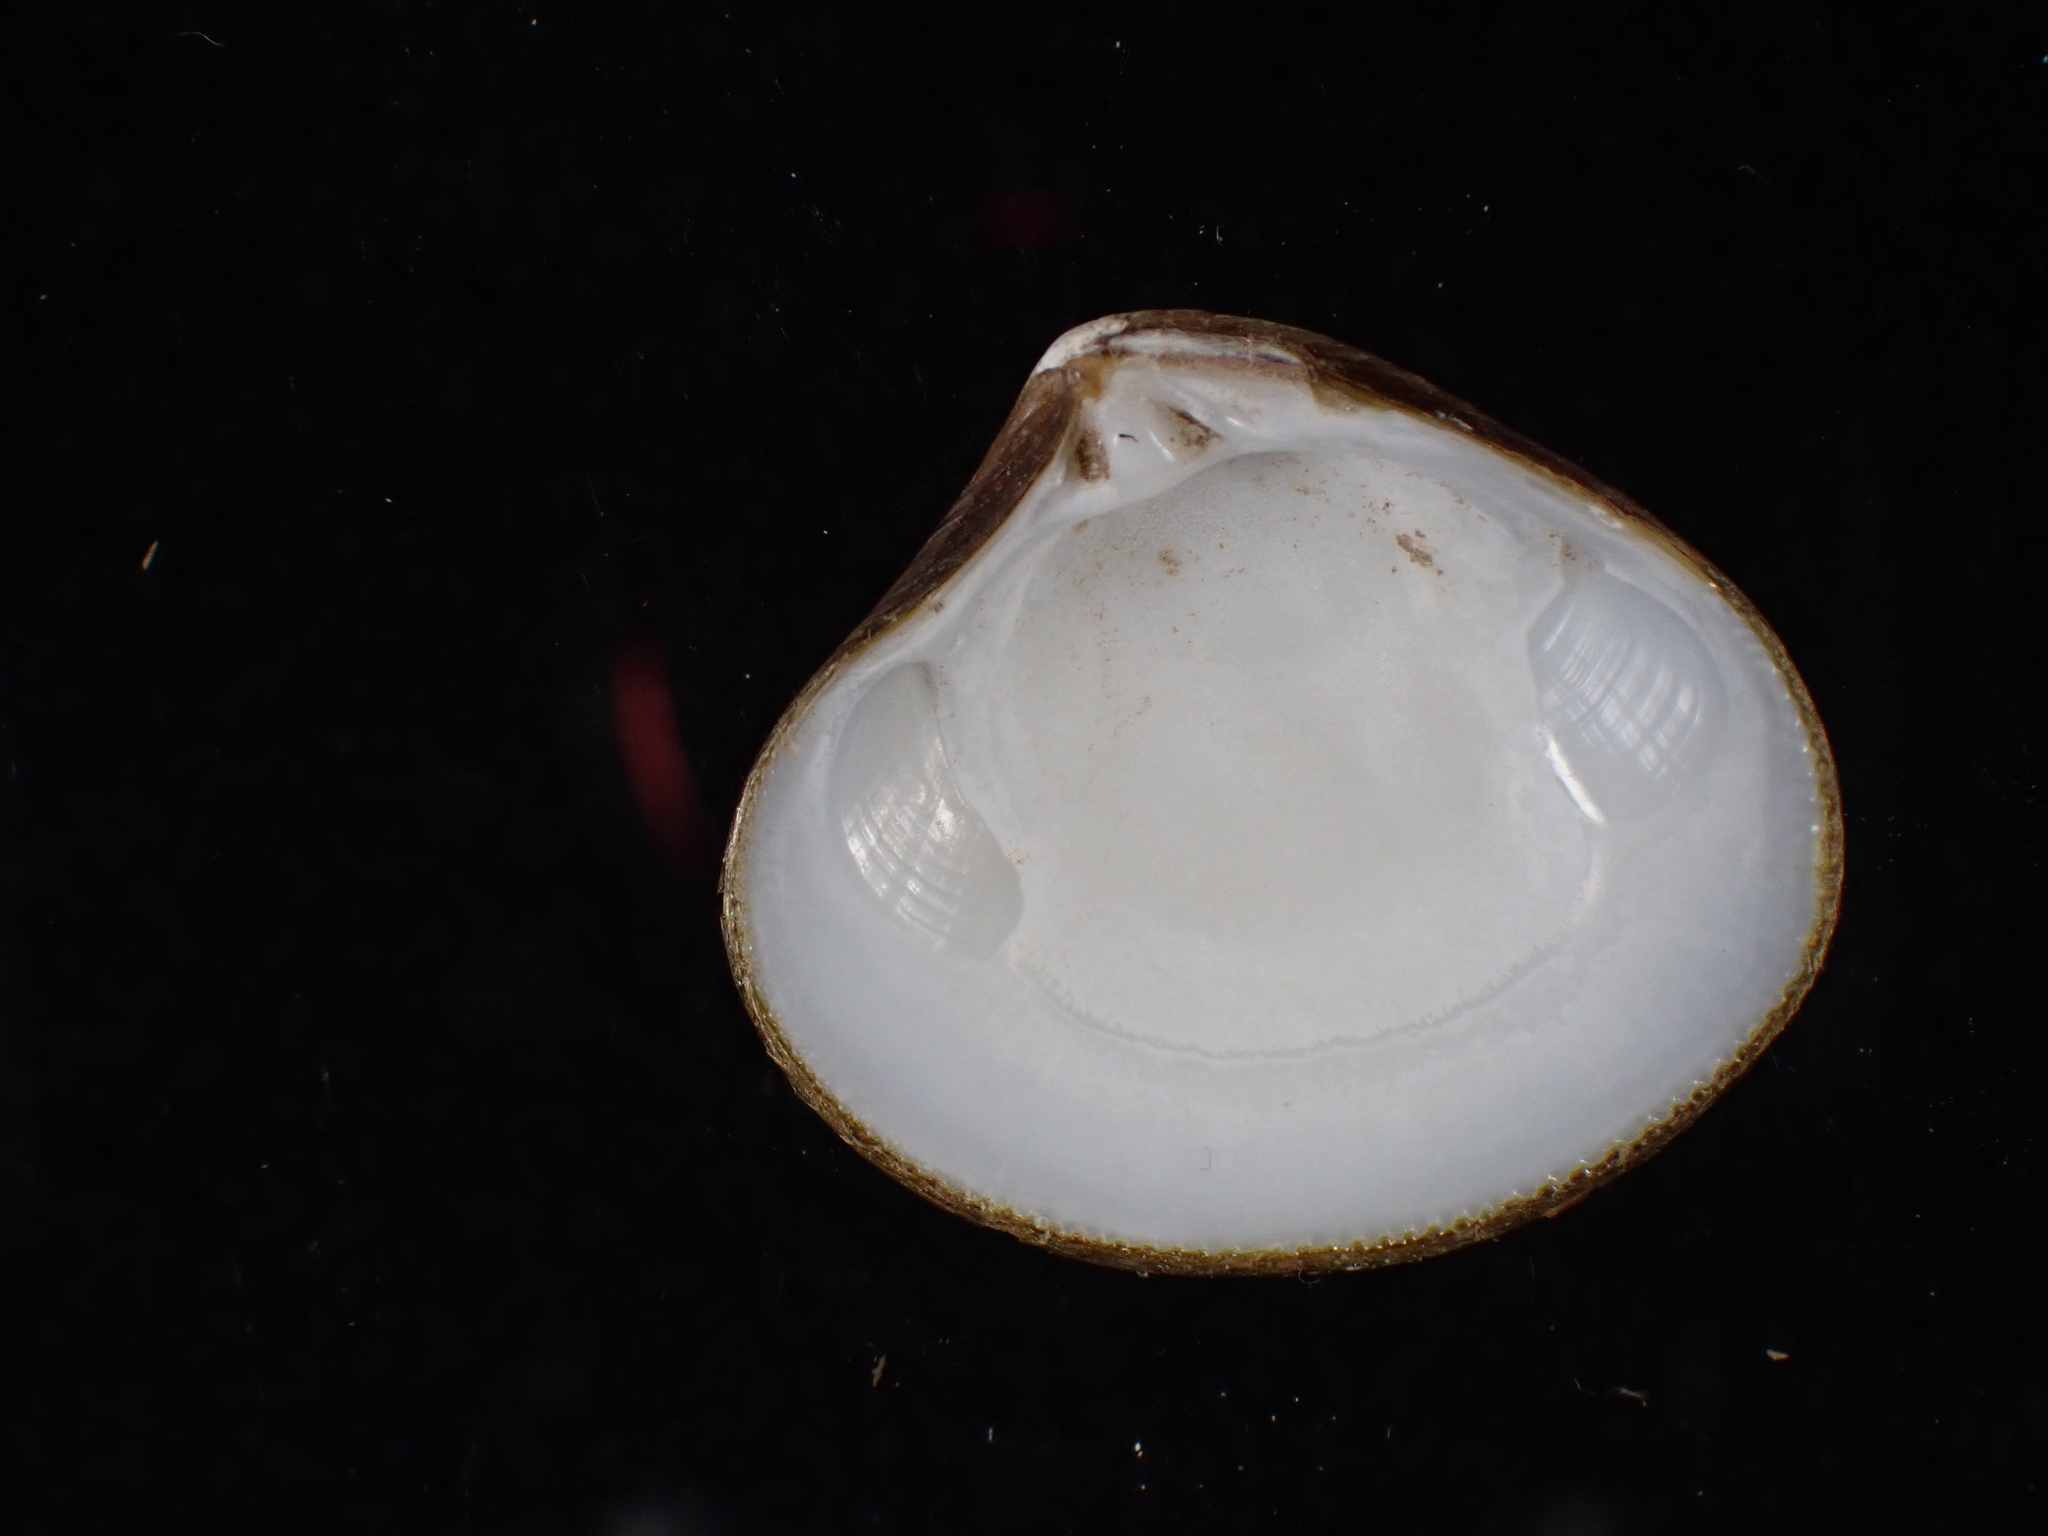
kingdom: Animalia
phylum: Mollusca
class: Bivalvia
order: Carditida
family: Astartidae
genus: Astarte
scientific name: Astarte undata
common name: Wavy astarte
